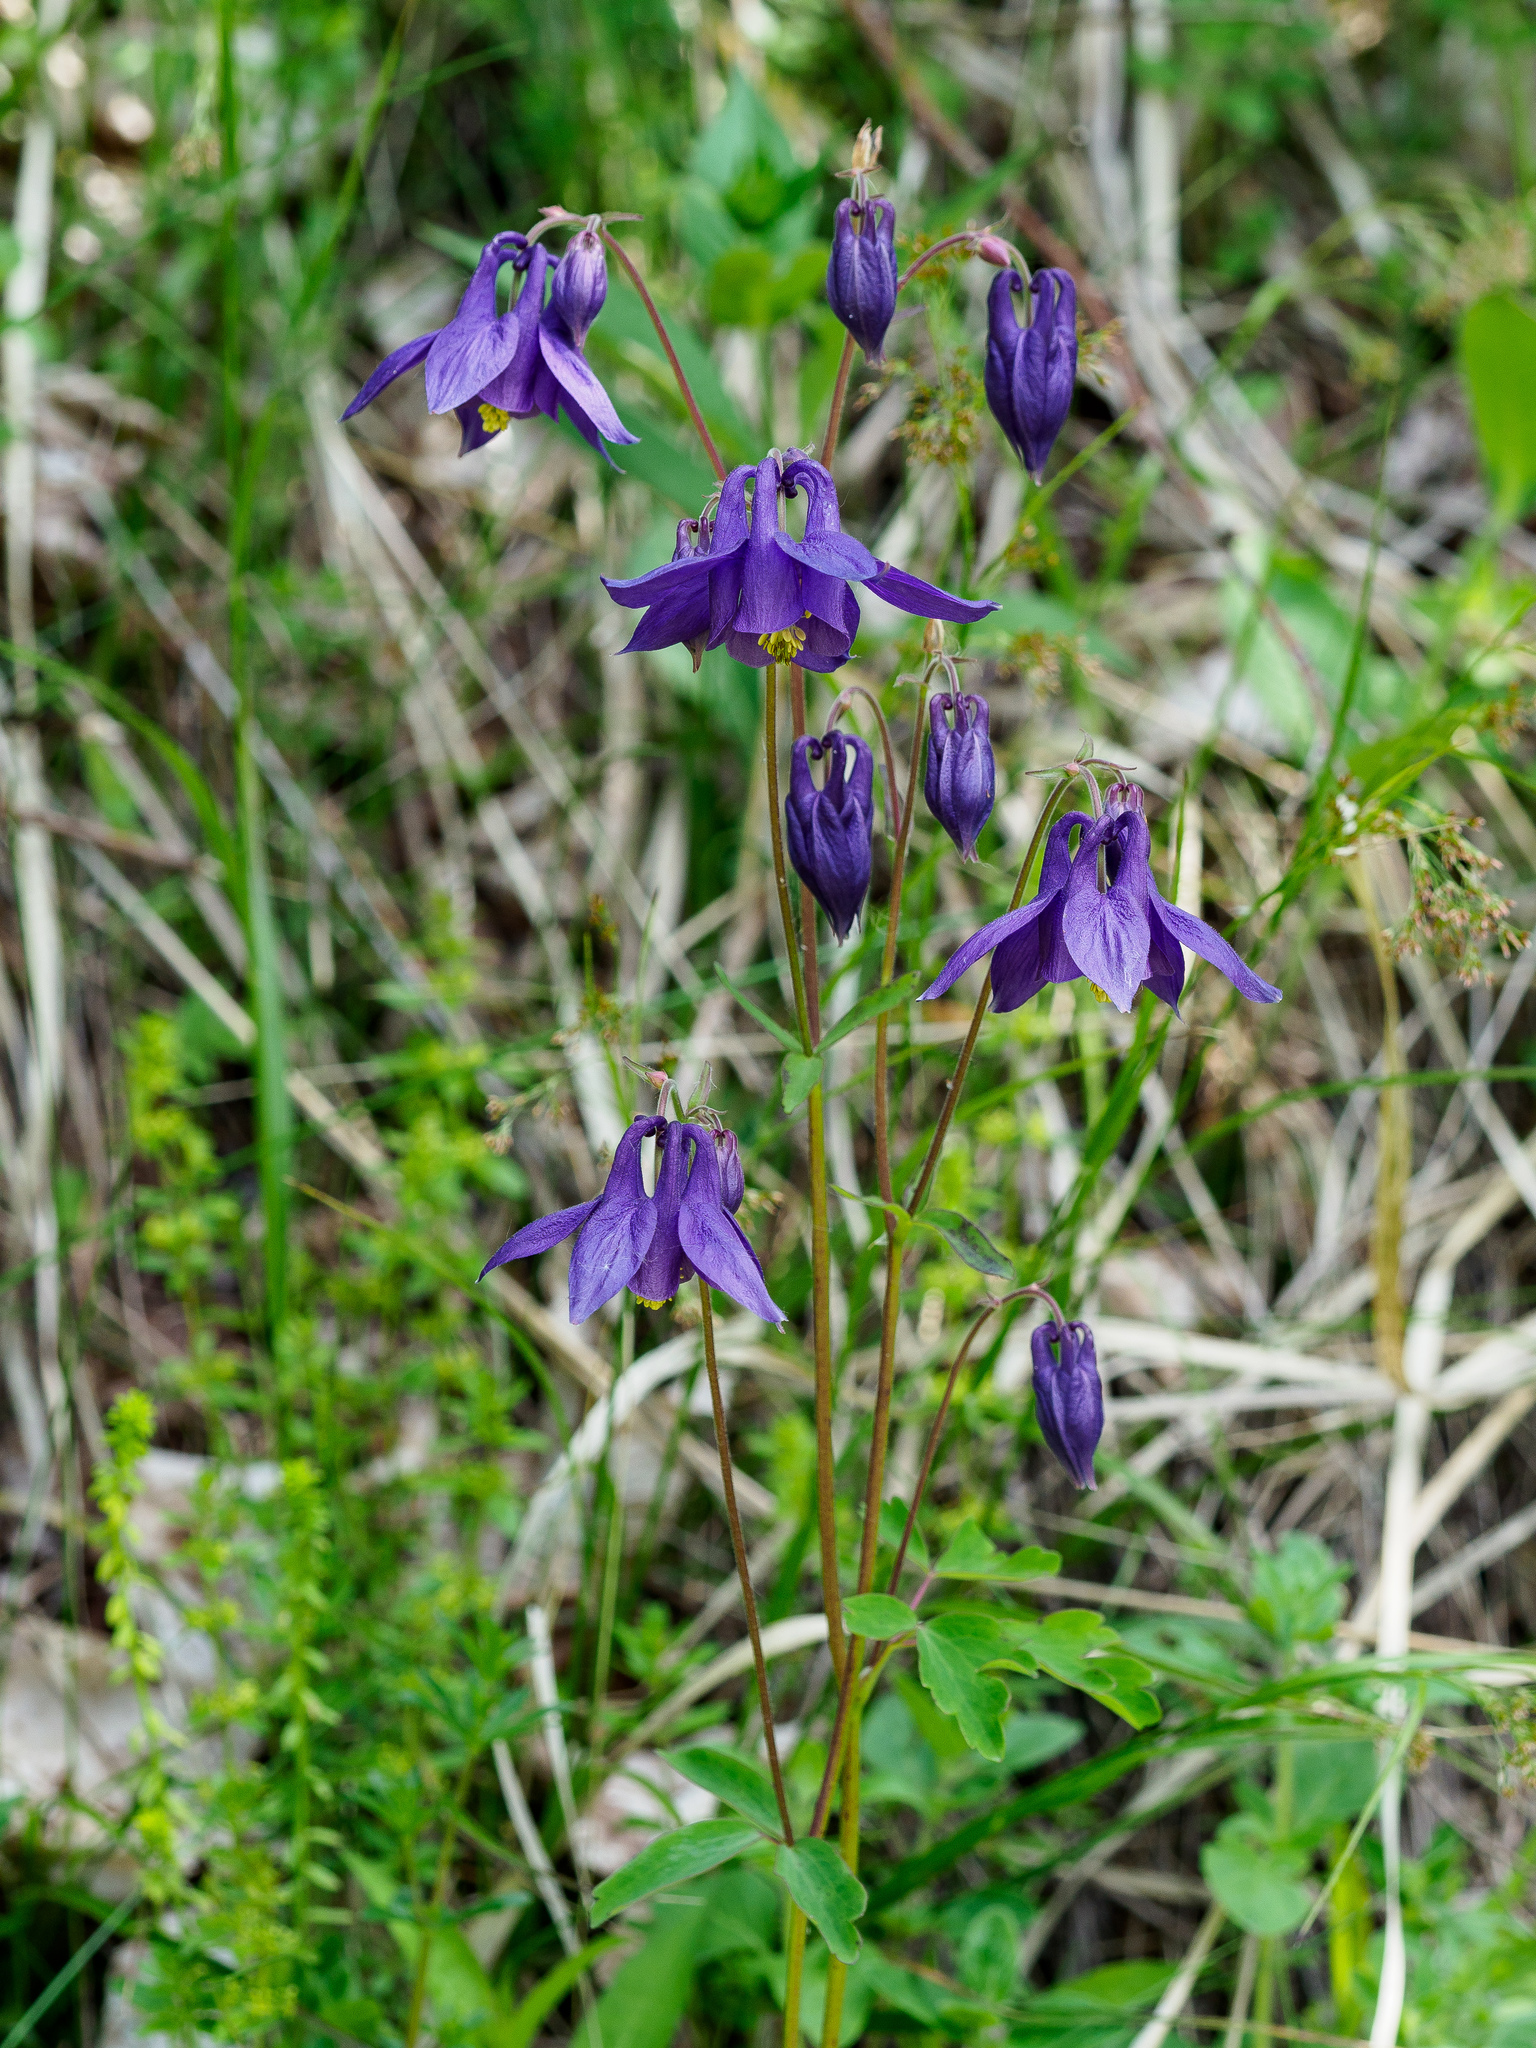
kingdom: Plantae
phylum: Tracheophyta
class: Magnoliopsida
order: Ranunculales
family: Ranunculaceae
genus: Aquilegia
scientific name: Aquilegia nigricans
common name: Bulgarian columbine
